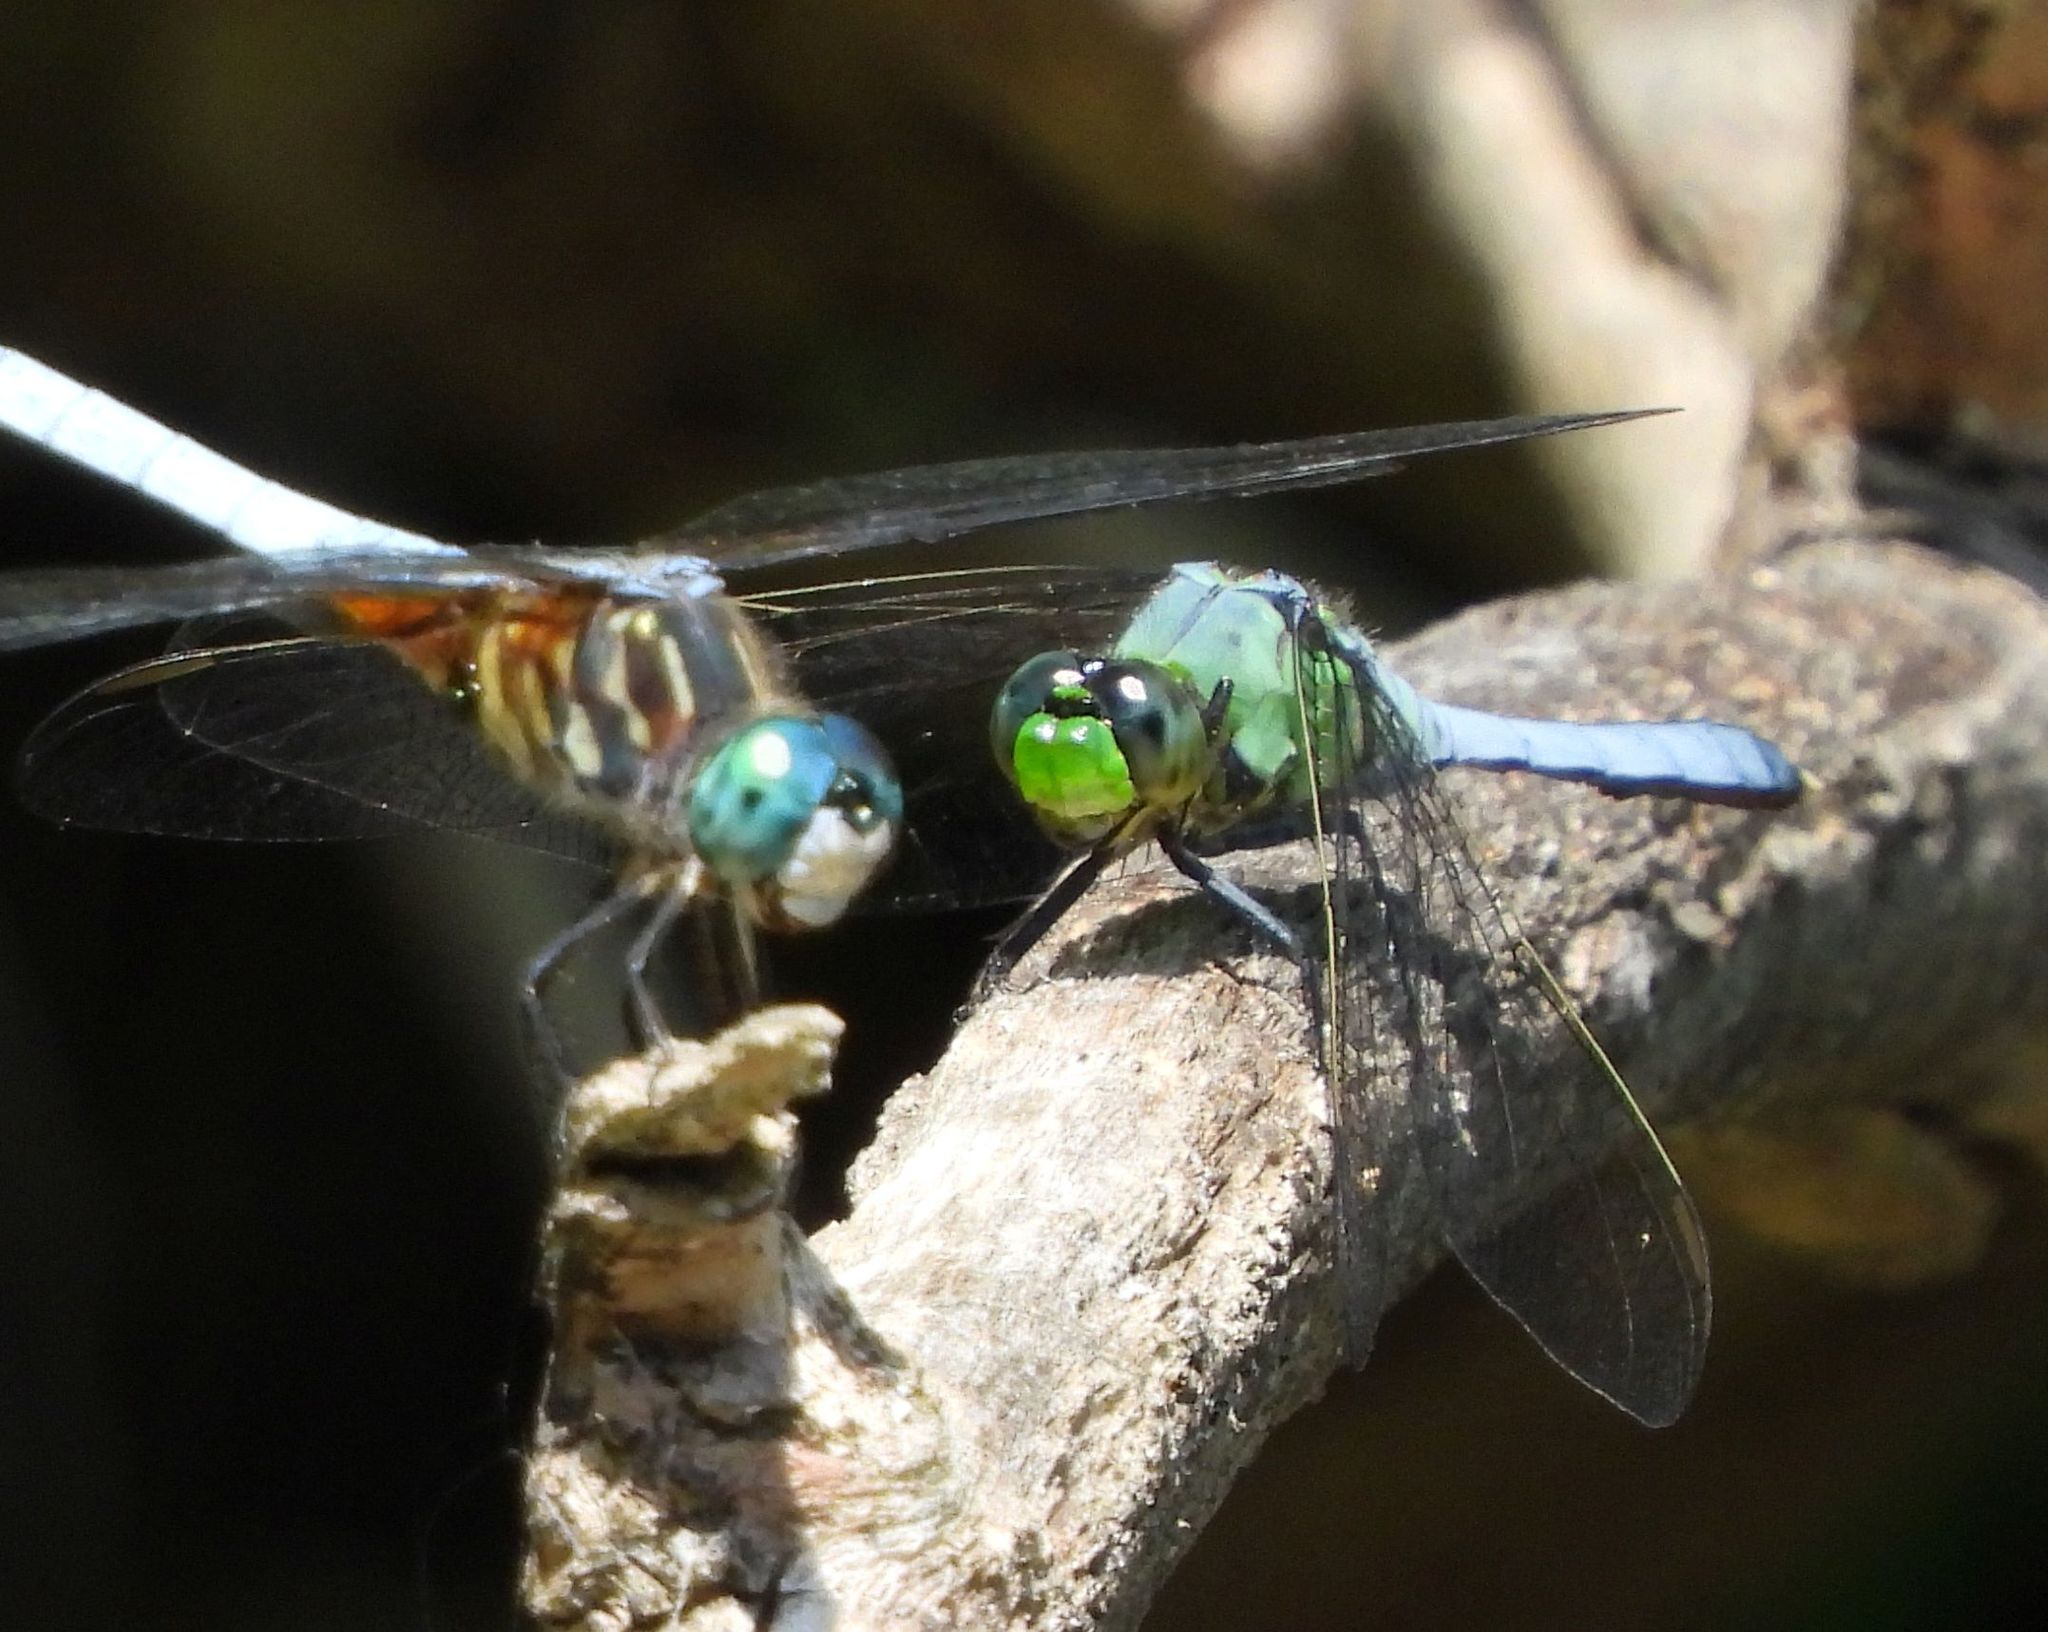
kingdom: Animalia
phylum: Arthropoda
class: Insecta
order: Odonata
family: Libellulidae
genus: Erythemis
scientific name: Erythemis simplicicollis
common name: Eastern pondhawk
